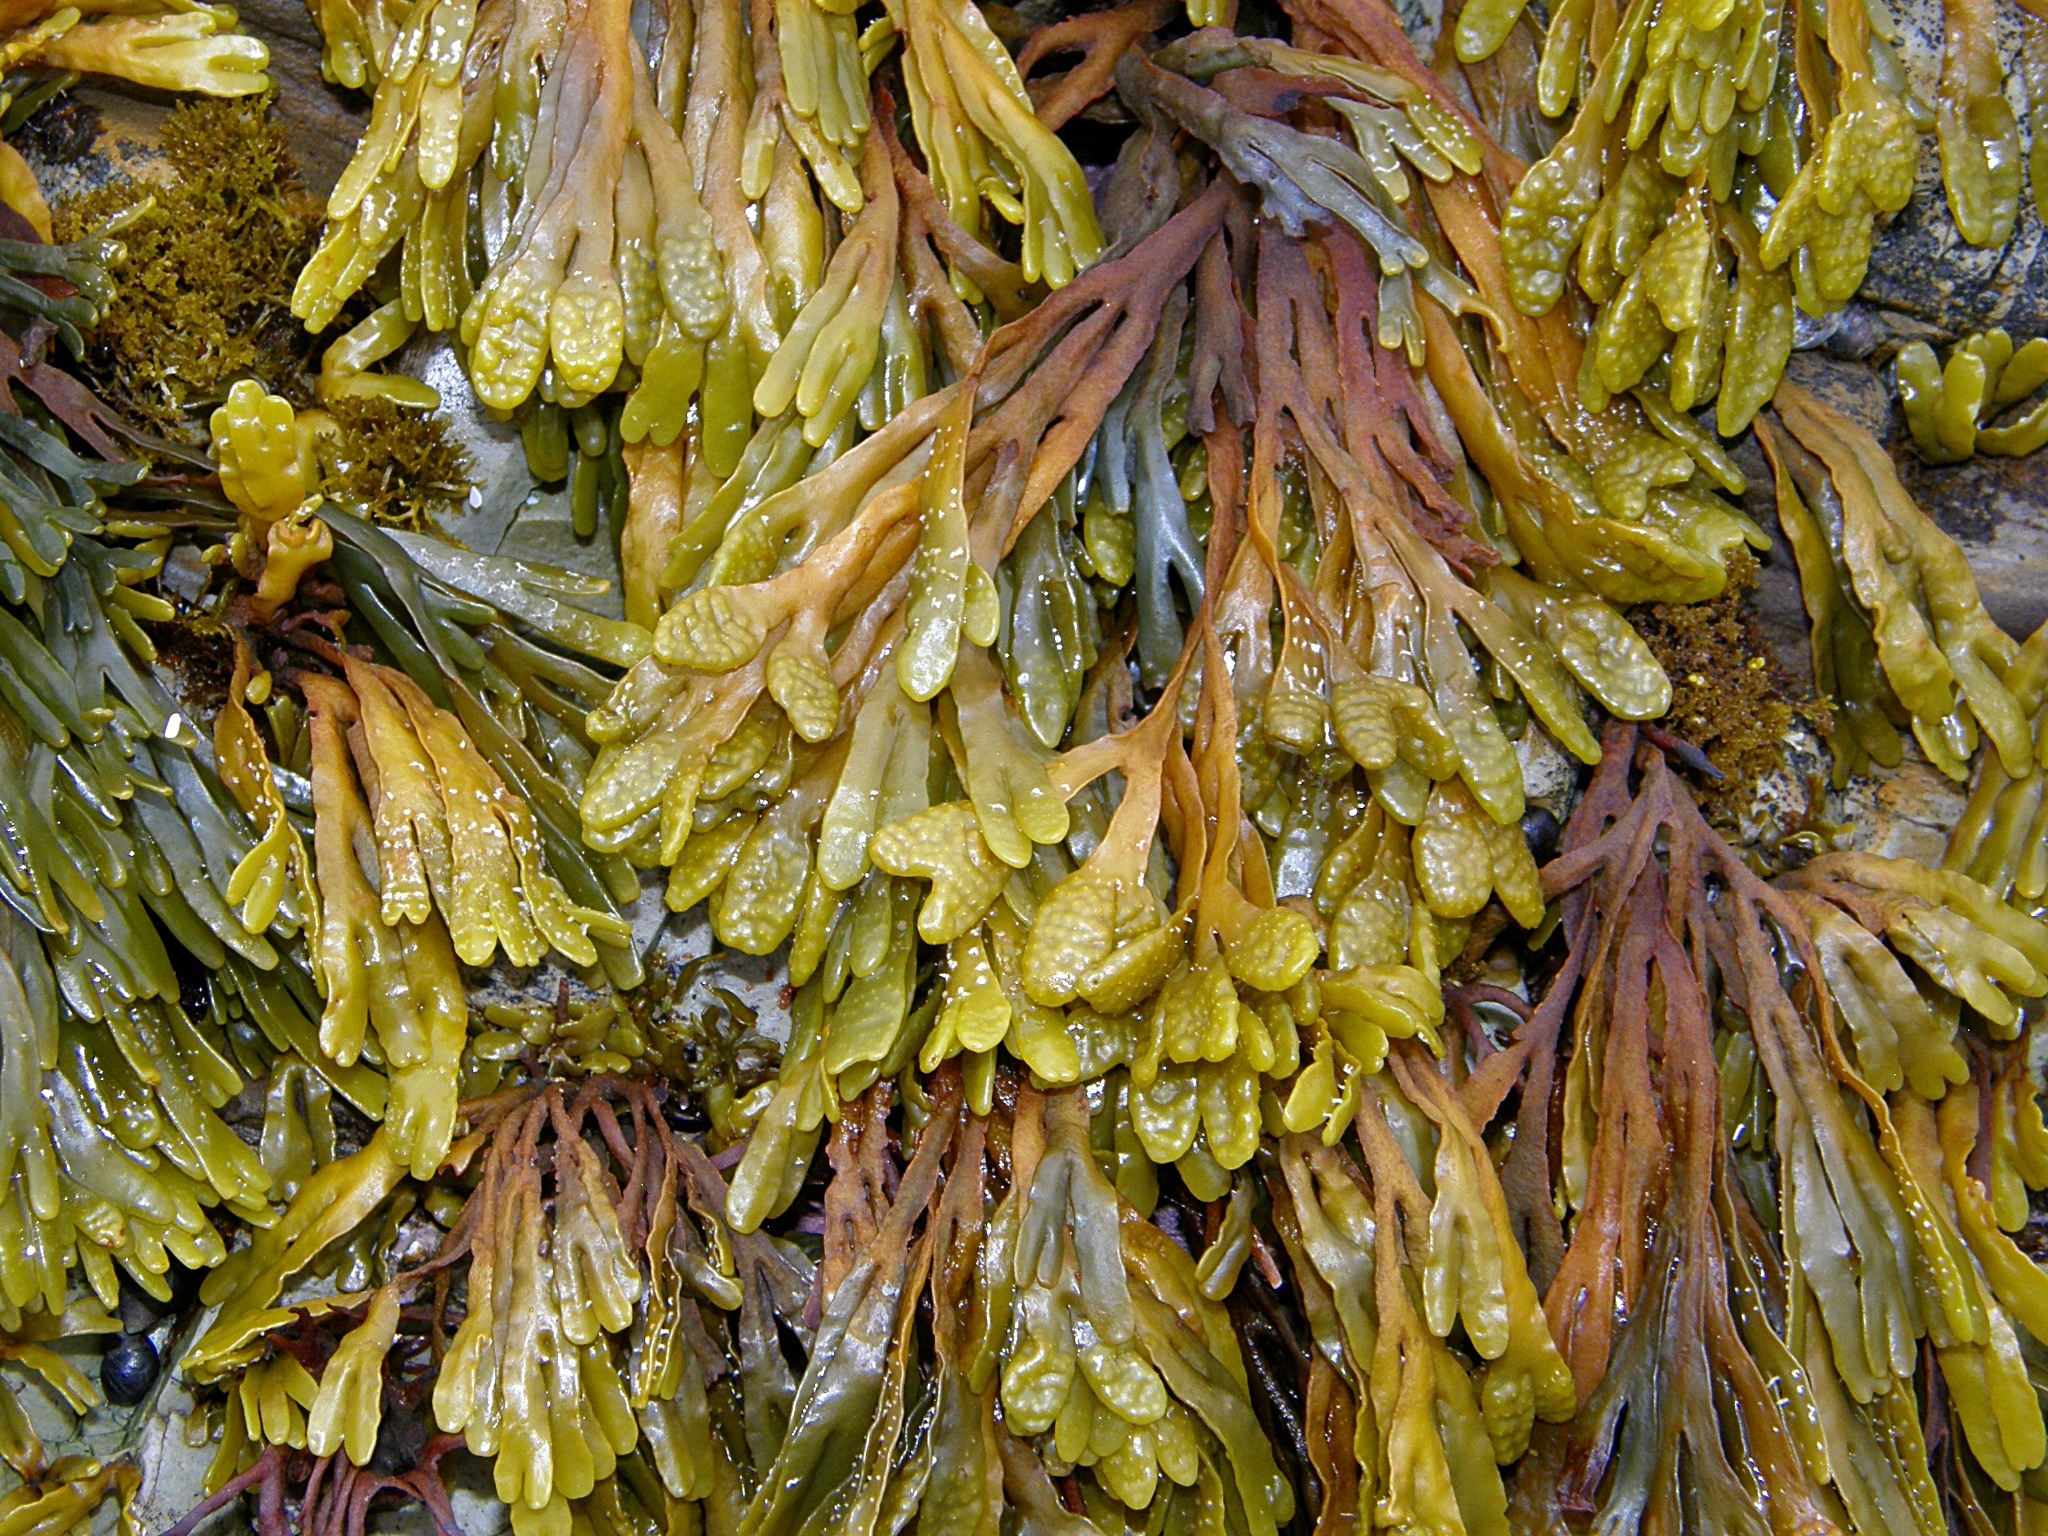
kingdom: Chromista
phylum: Ochrophyta
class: Phaeophyceae
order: Fucales
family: Fucaceae
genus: Pelvetiopsis
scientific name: Pelvetiopsis
